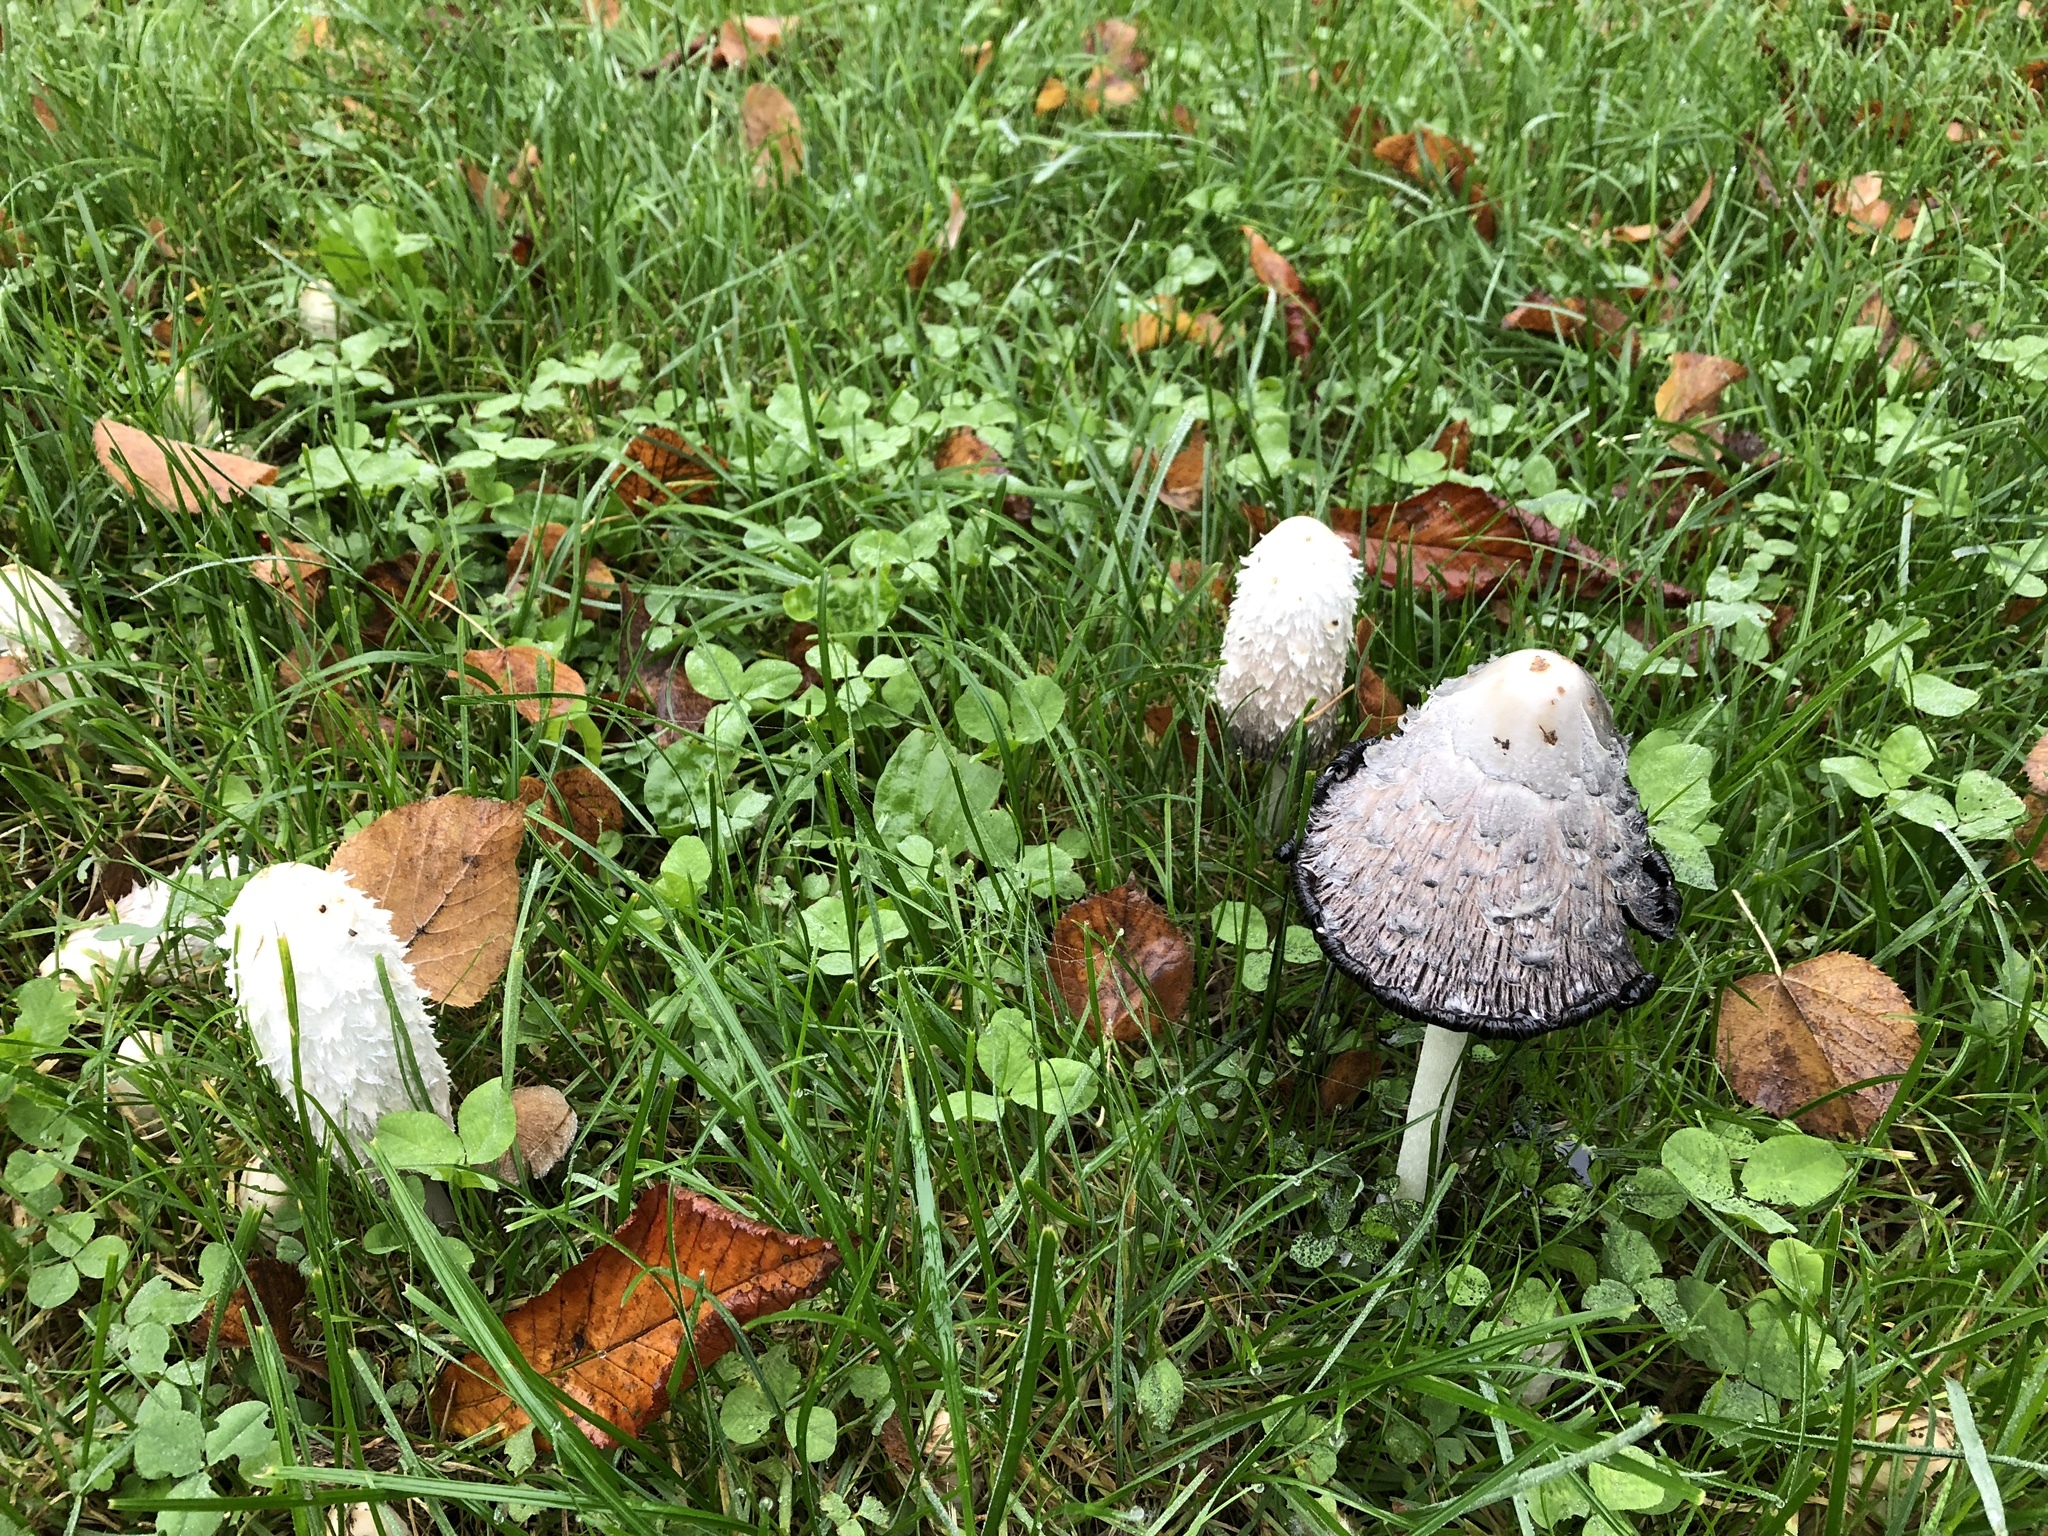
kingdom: Fungi
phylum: Basidiomycota
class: Agaricomycetes
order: Agaricales
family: Agaricaceae
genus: Coprinus
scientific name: Coprinus comatus
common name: Lawyer's wig
